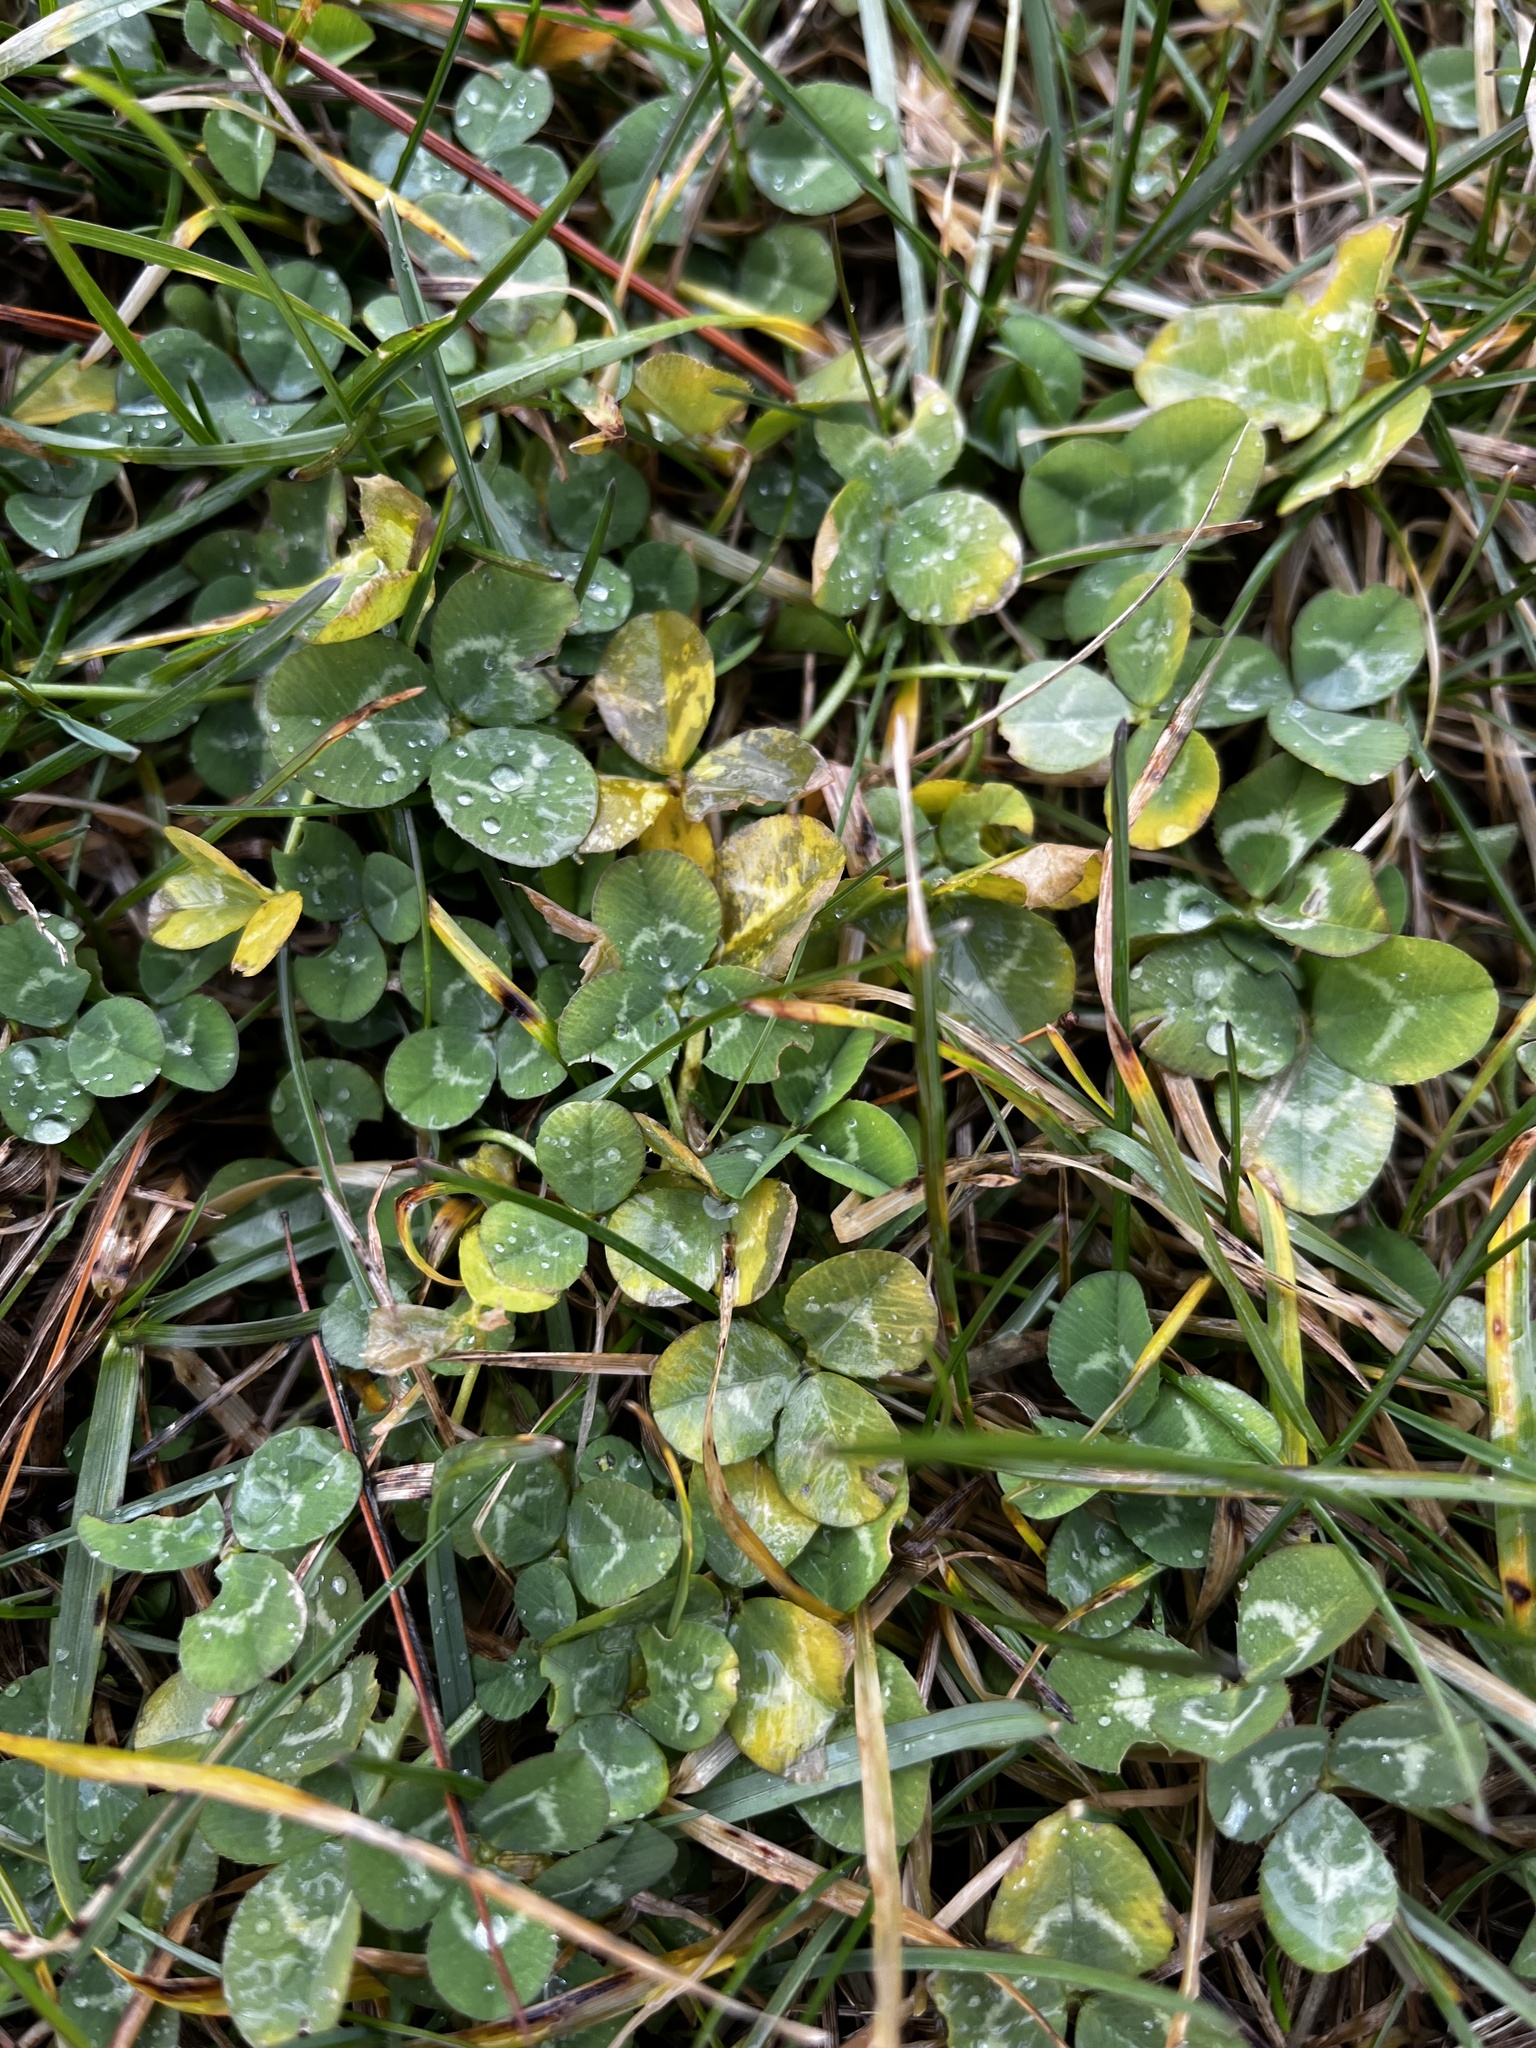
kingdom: Plantae
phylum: Tracheophyta
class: Magnoliopsida
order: Fabales
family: Fabaceae
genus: Trifolium
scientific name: Trifolium repens
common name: White clover
